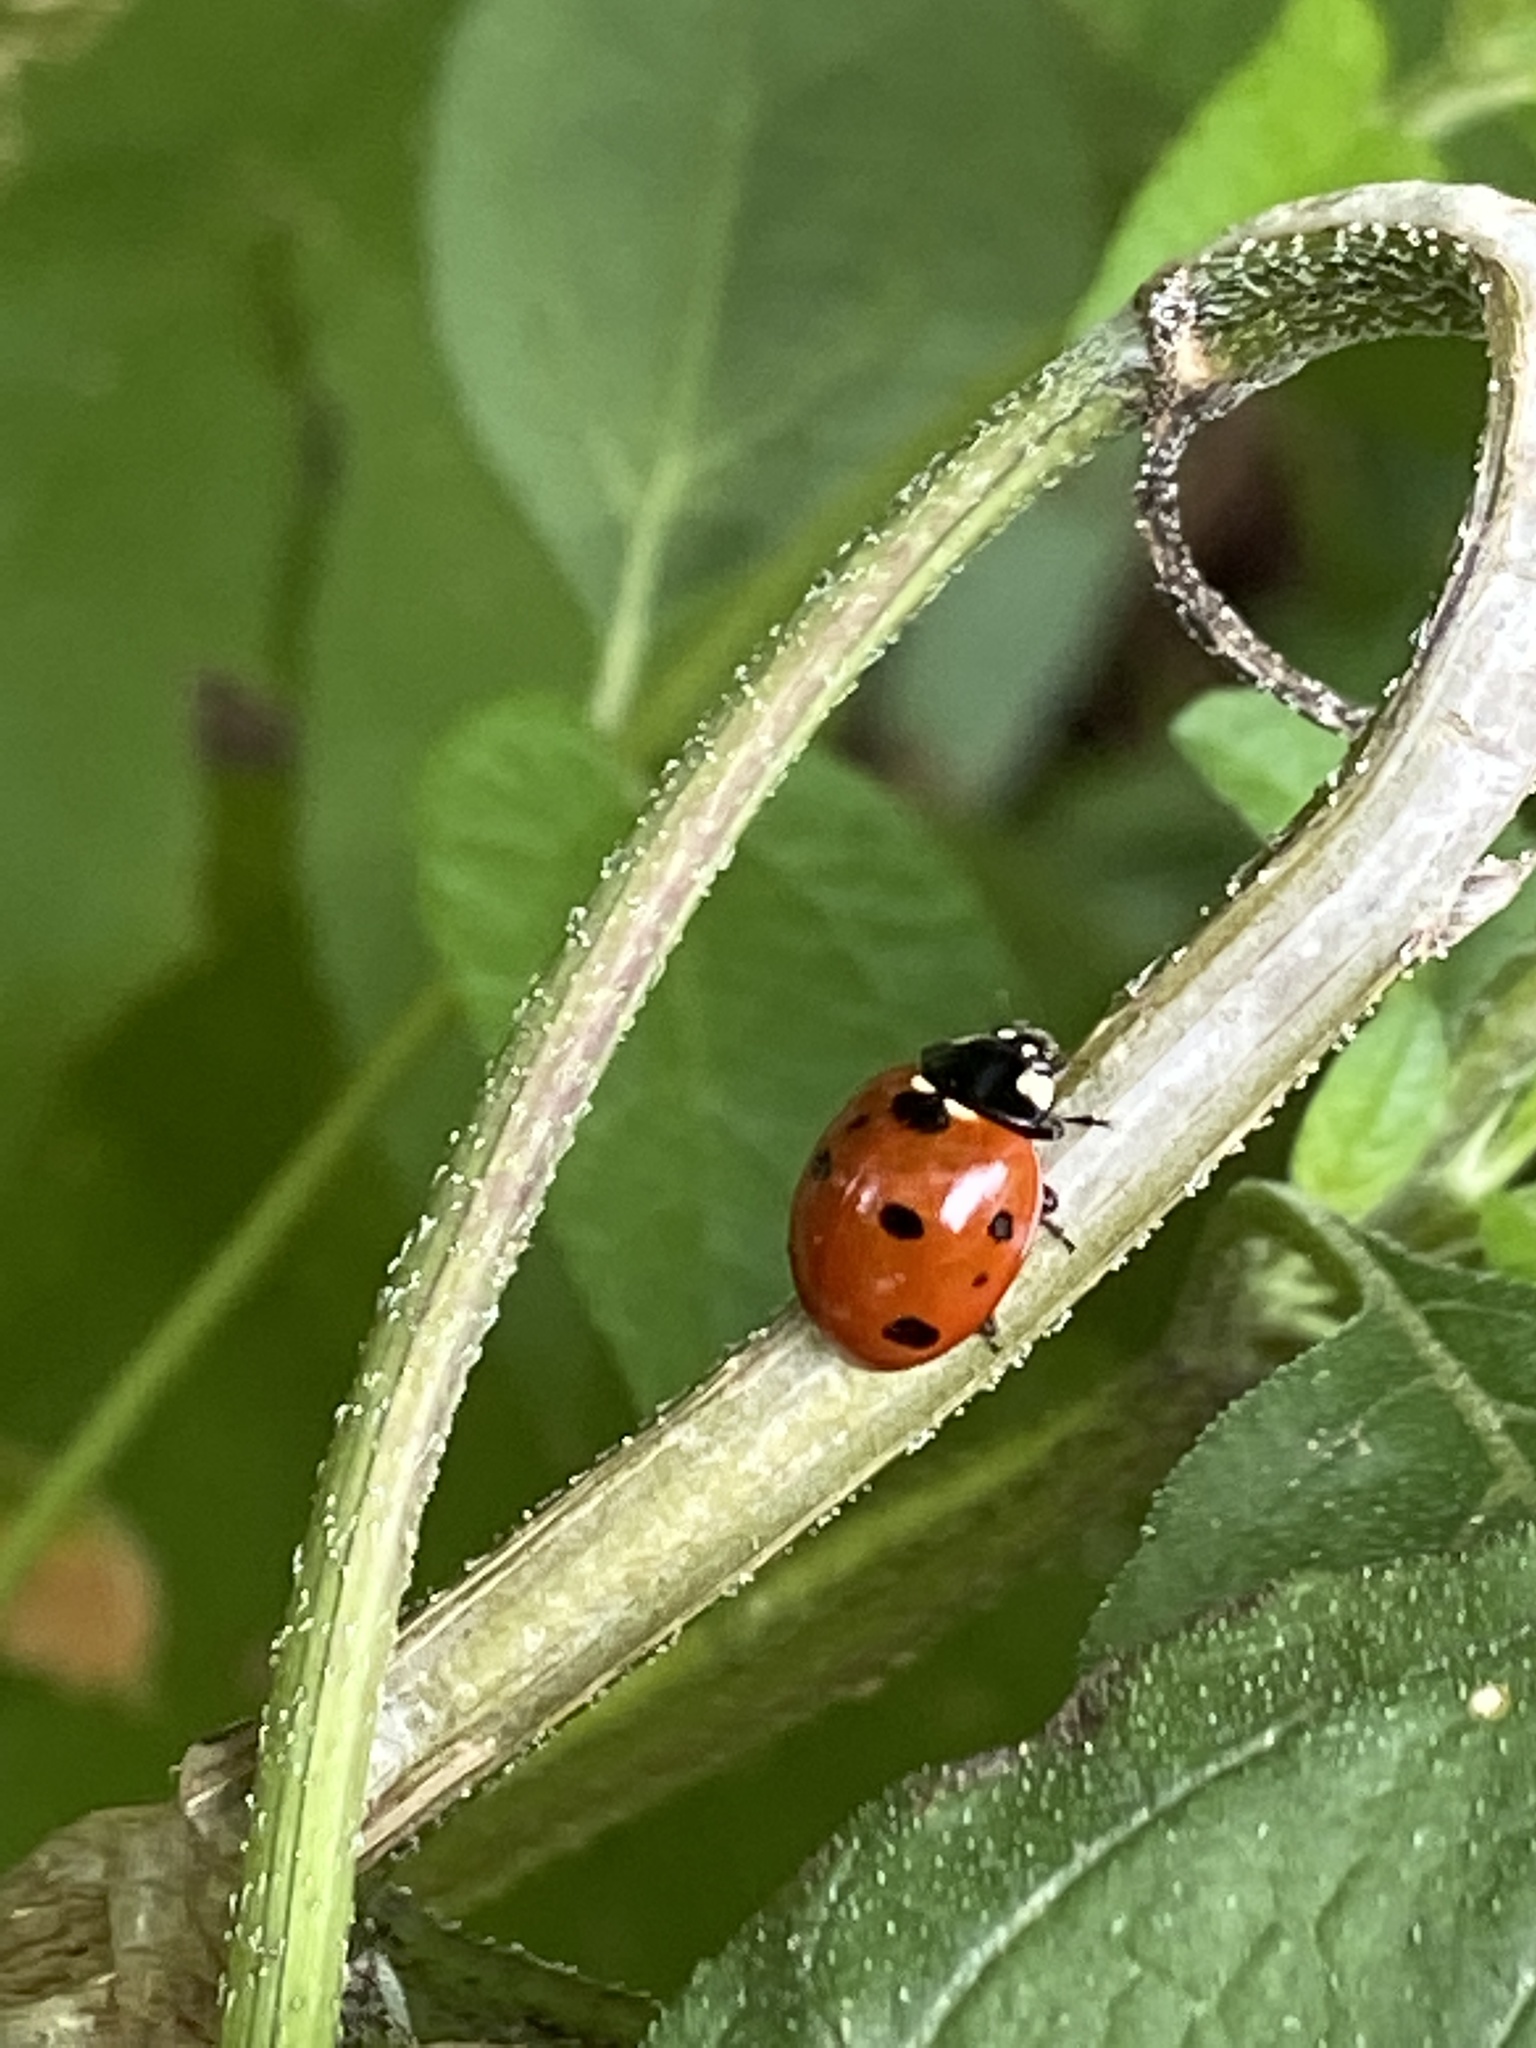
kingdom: Animalia
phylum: Arthropoda
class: Insecta
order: Coleoptera
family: Coccinellidae
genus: Coccinella
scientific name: Coccinella septempunctata
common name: Sevenspotted lady beetle
